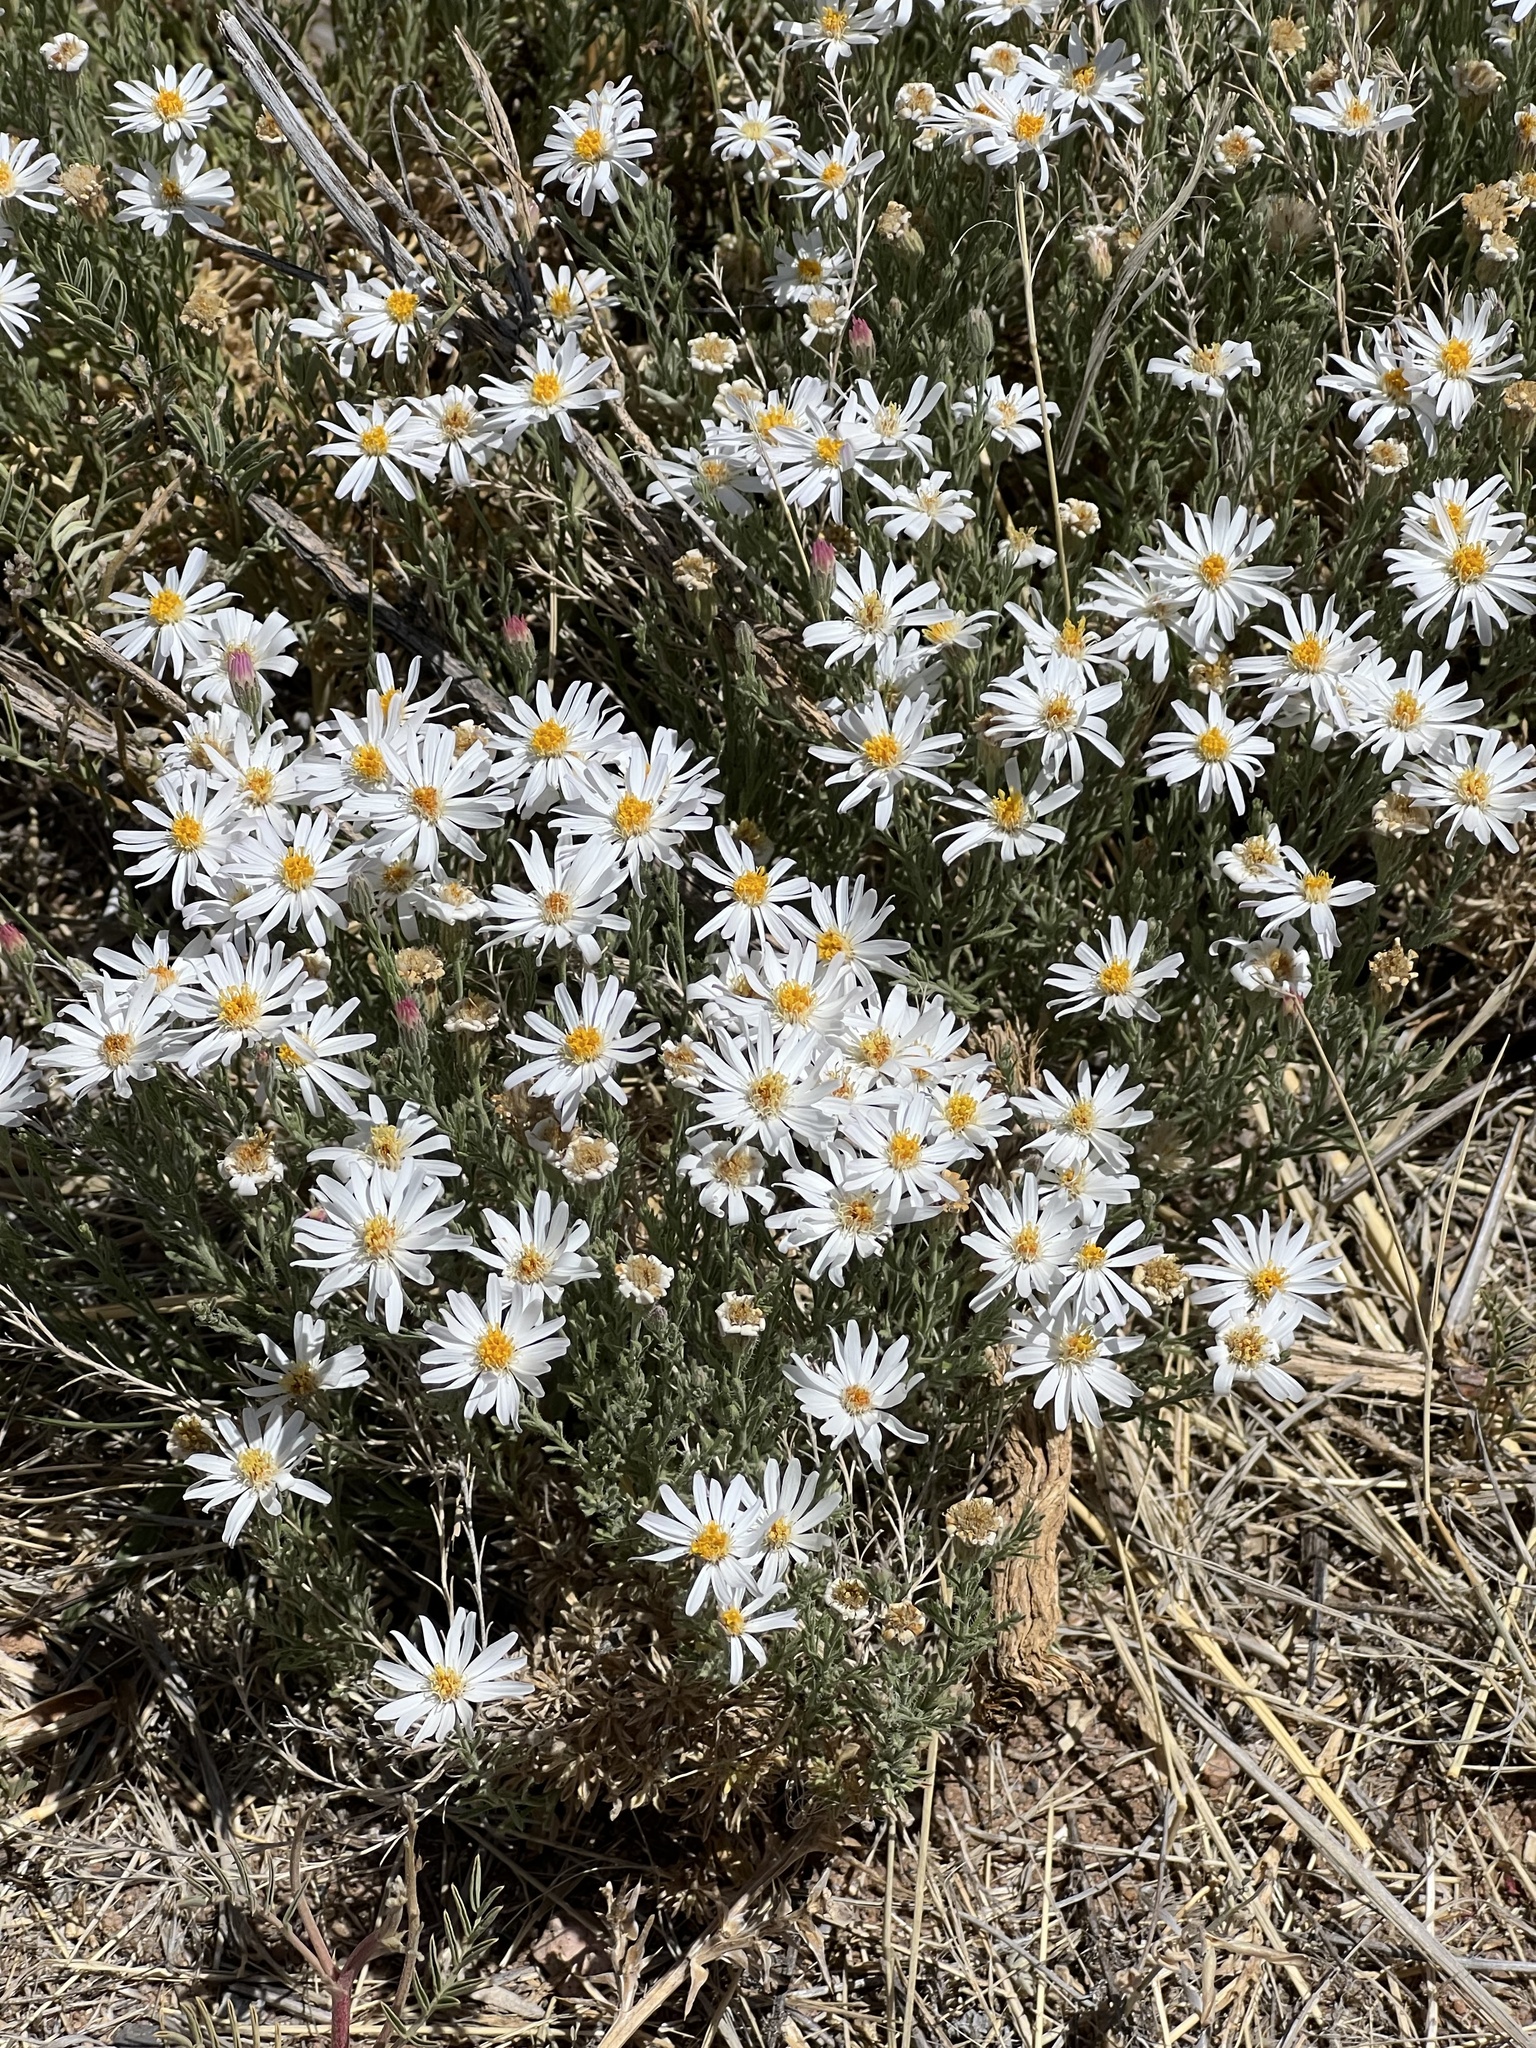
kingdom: Plantae
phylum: Tracheophyta
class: Magnoliopsida
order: Asterales
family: Asteraceae
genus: Chaetopappa
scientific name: Chaetopappa ericoides
